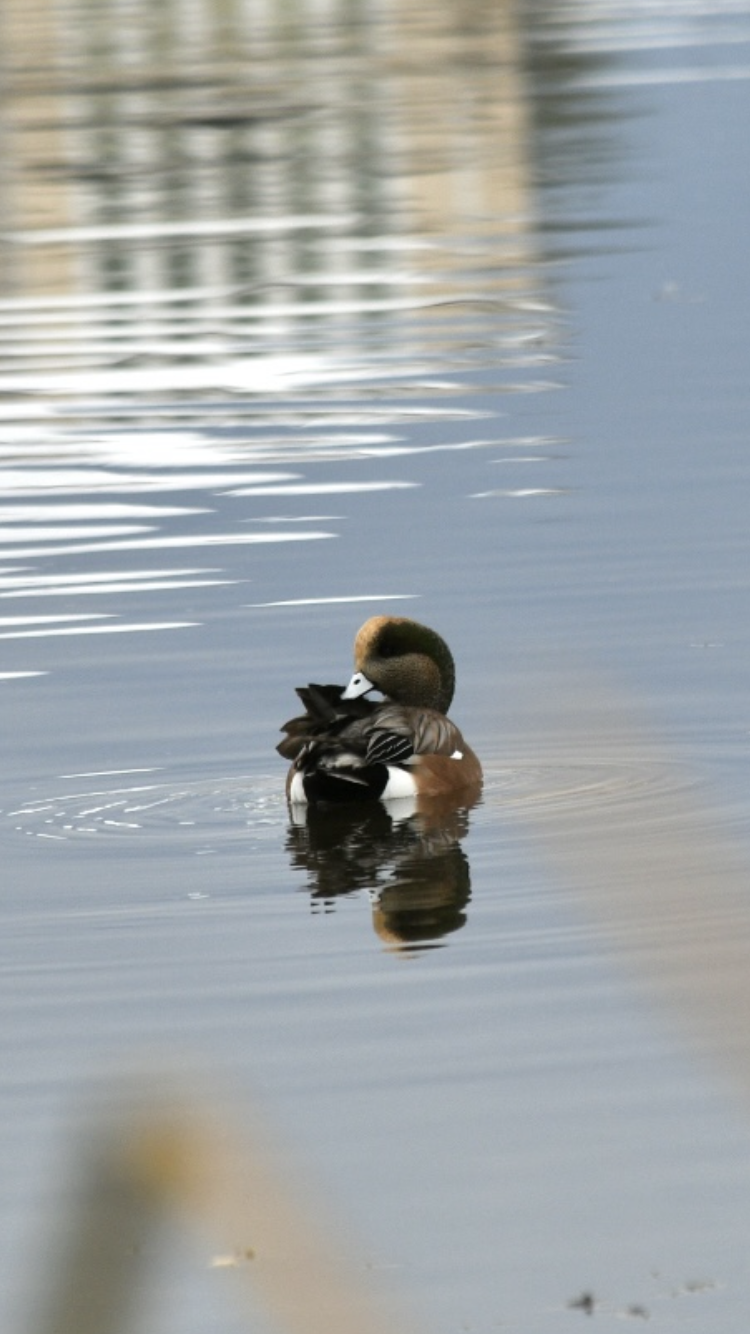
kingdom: Animalia
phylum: Chordata
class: Aves
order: Anseriformes
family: Anatidae
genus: Mareca
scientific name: Mareca americana
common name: American wigeon
